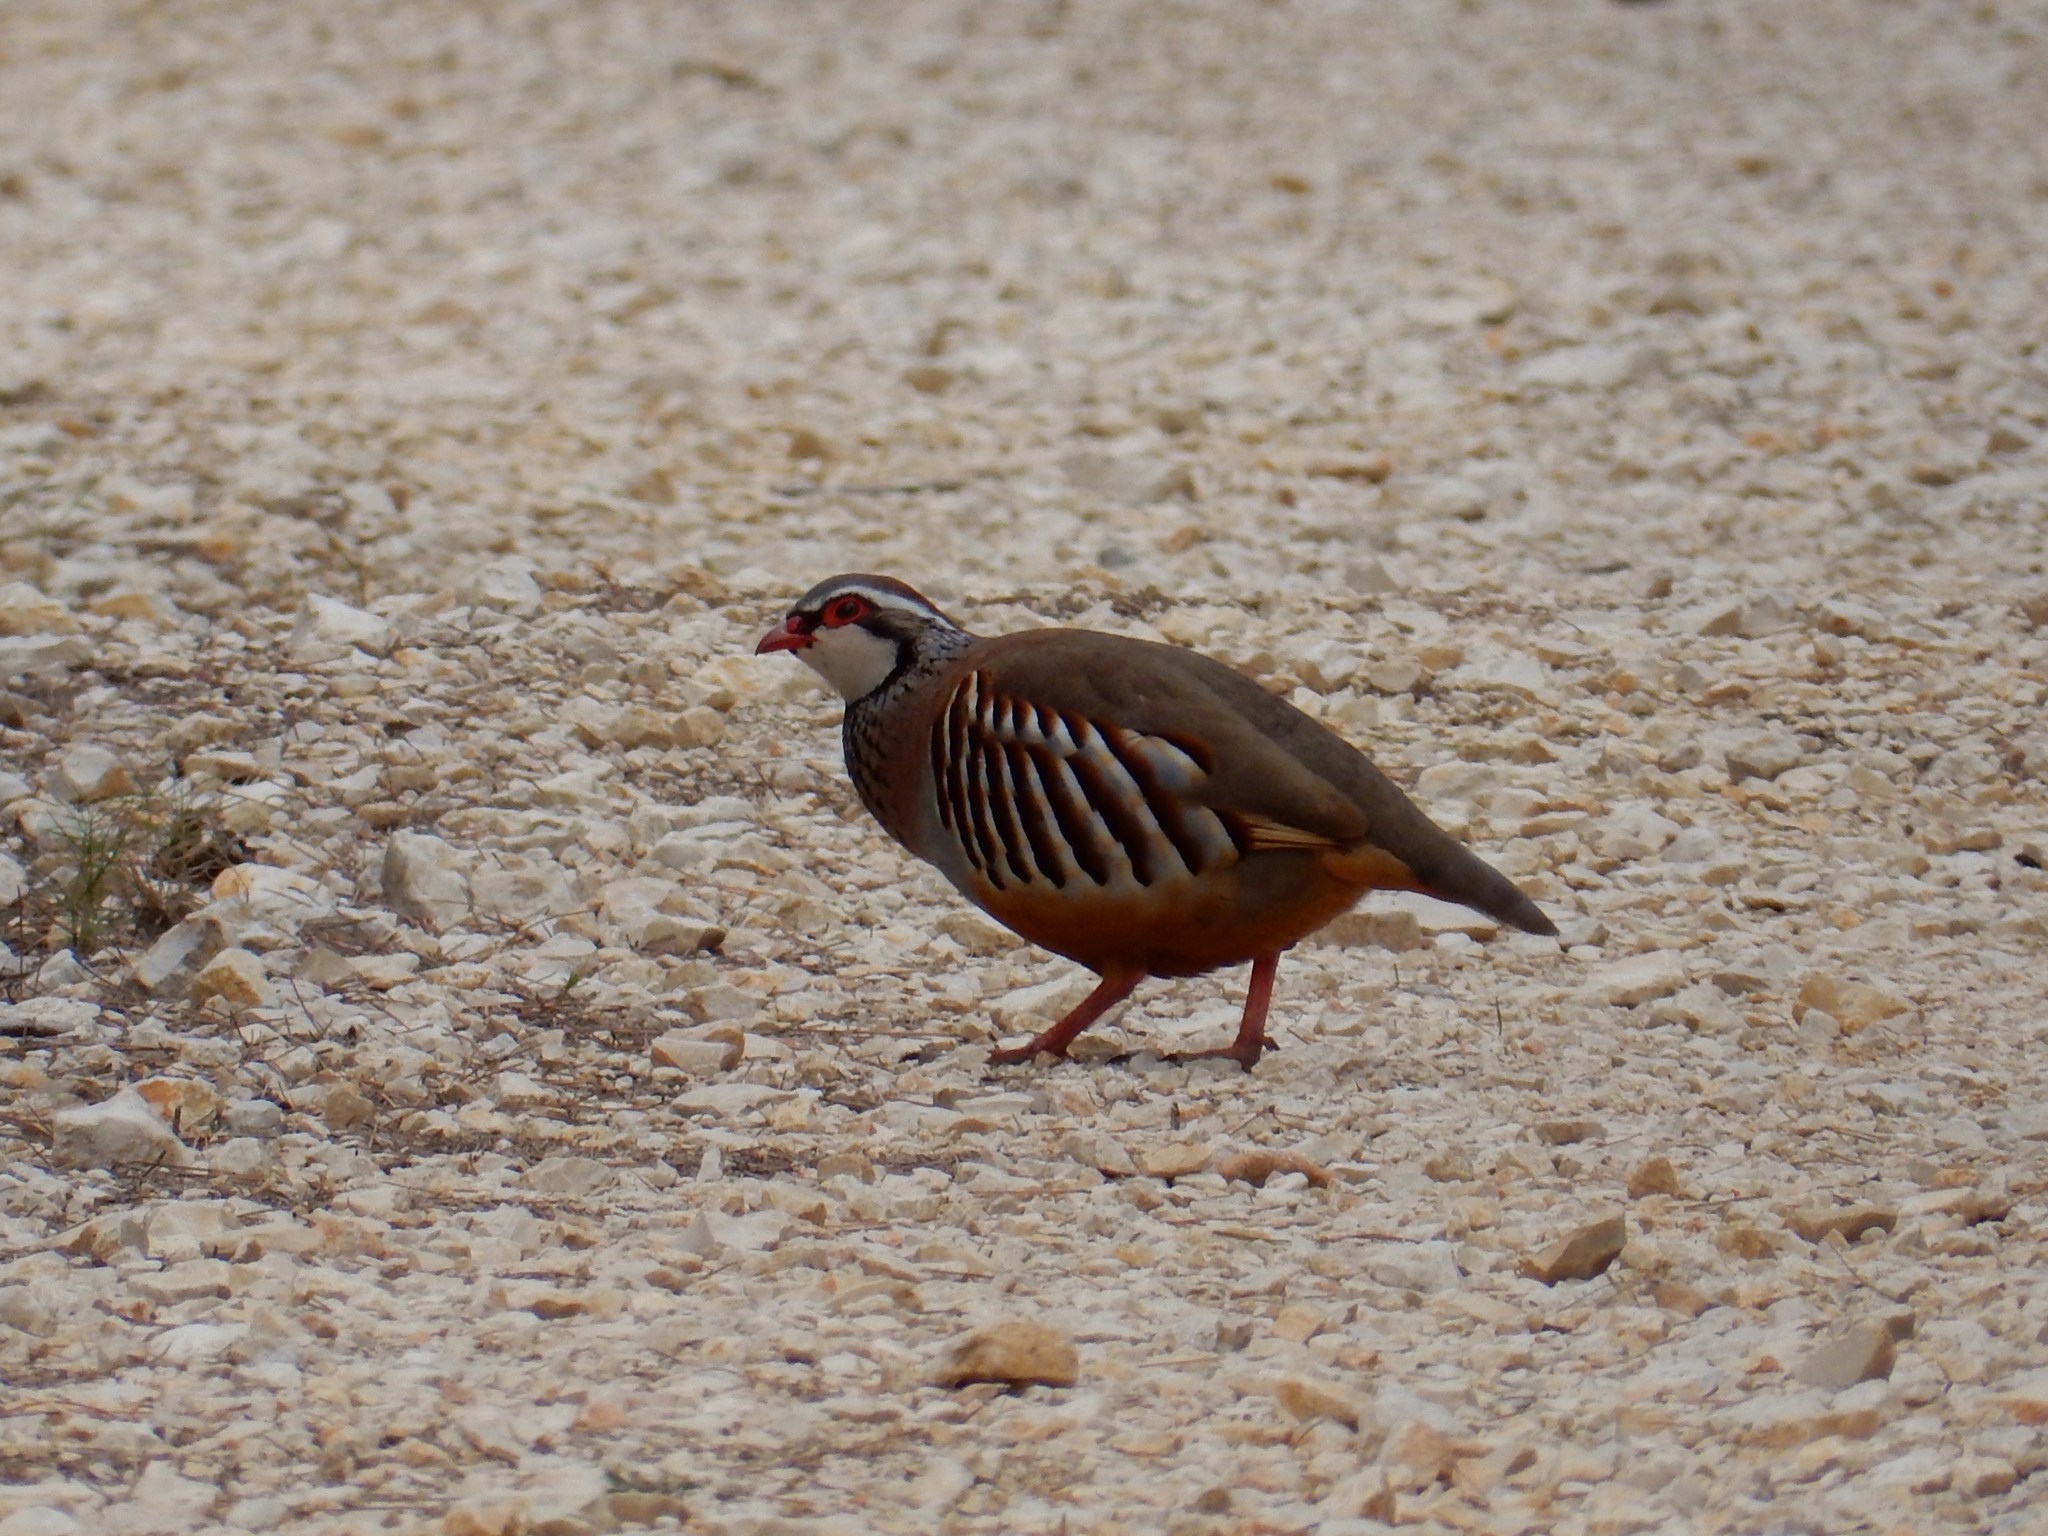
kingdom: Animalia
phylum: Chordata
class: Aves
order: Galliformes
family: Phasianidae
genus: Alectoris
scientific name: Alectoris rufa
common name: Red-legged partridge
